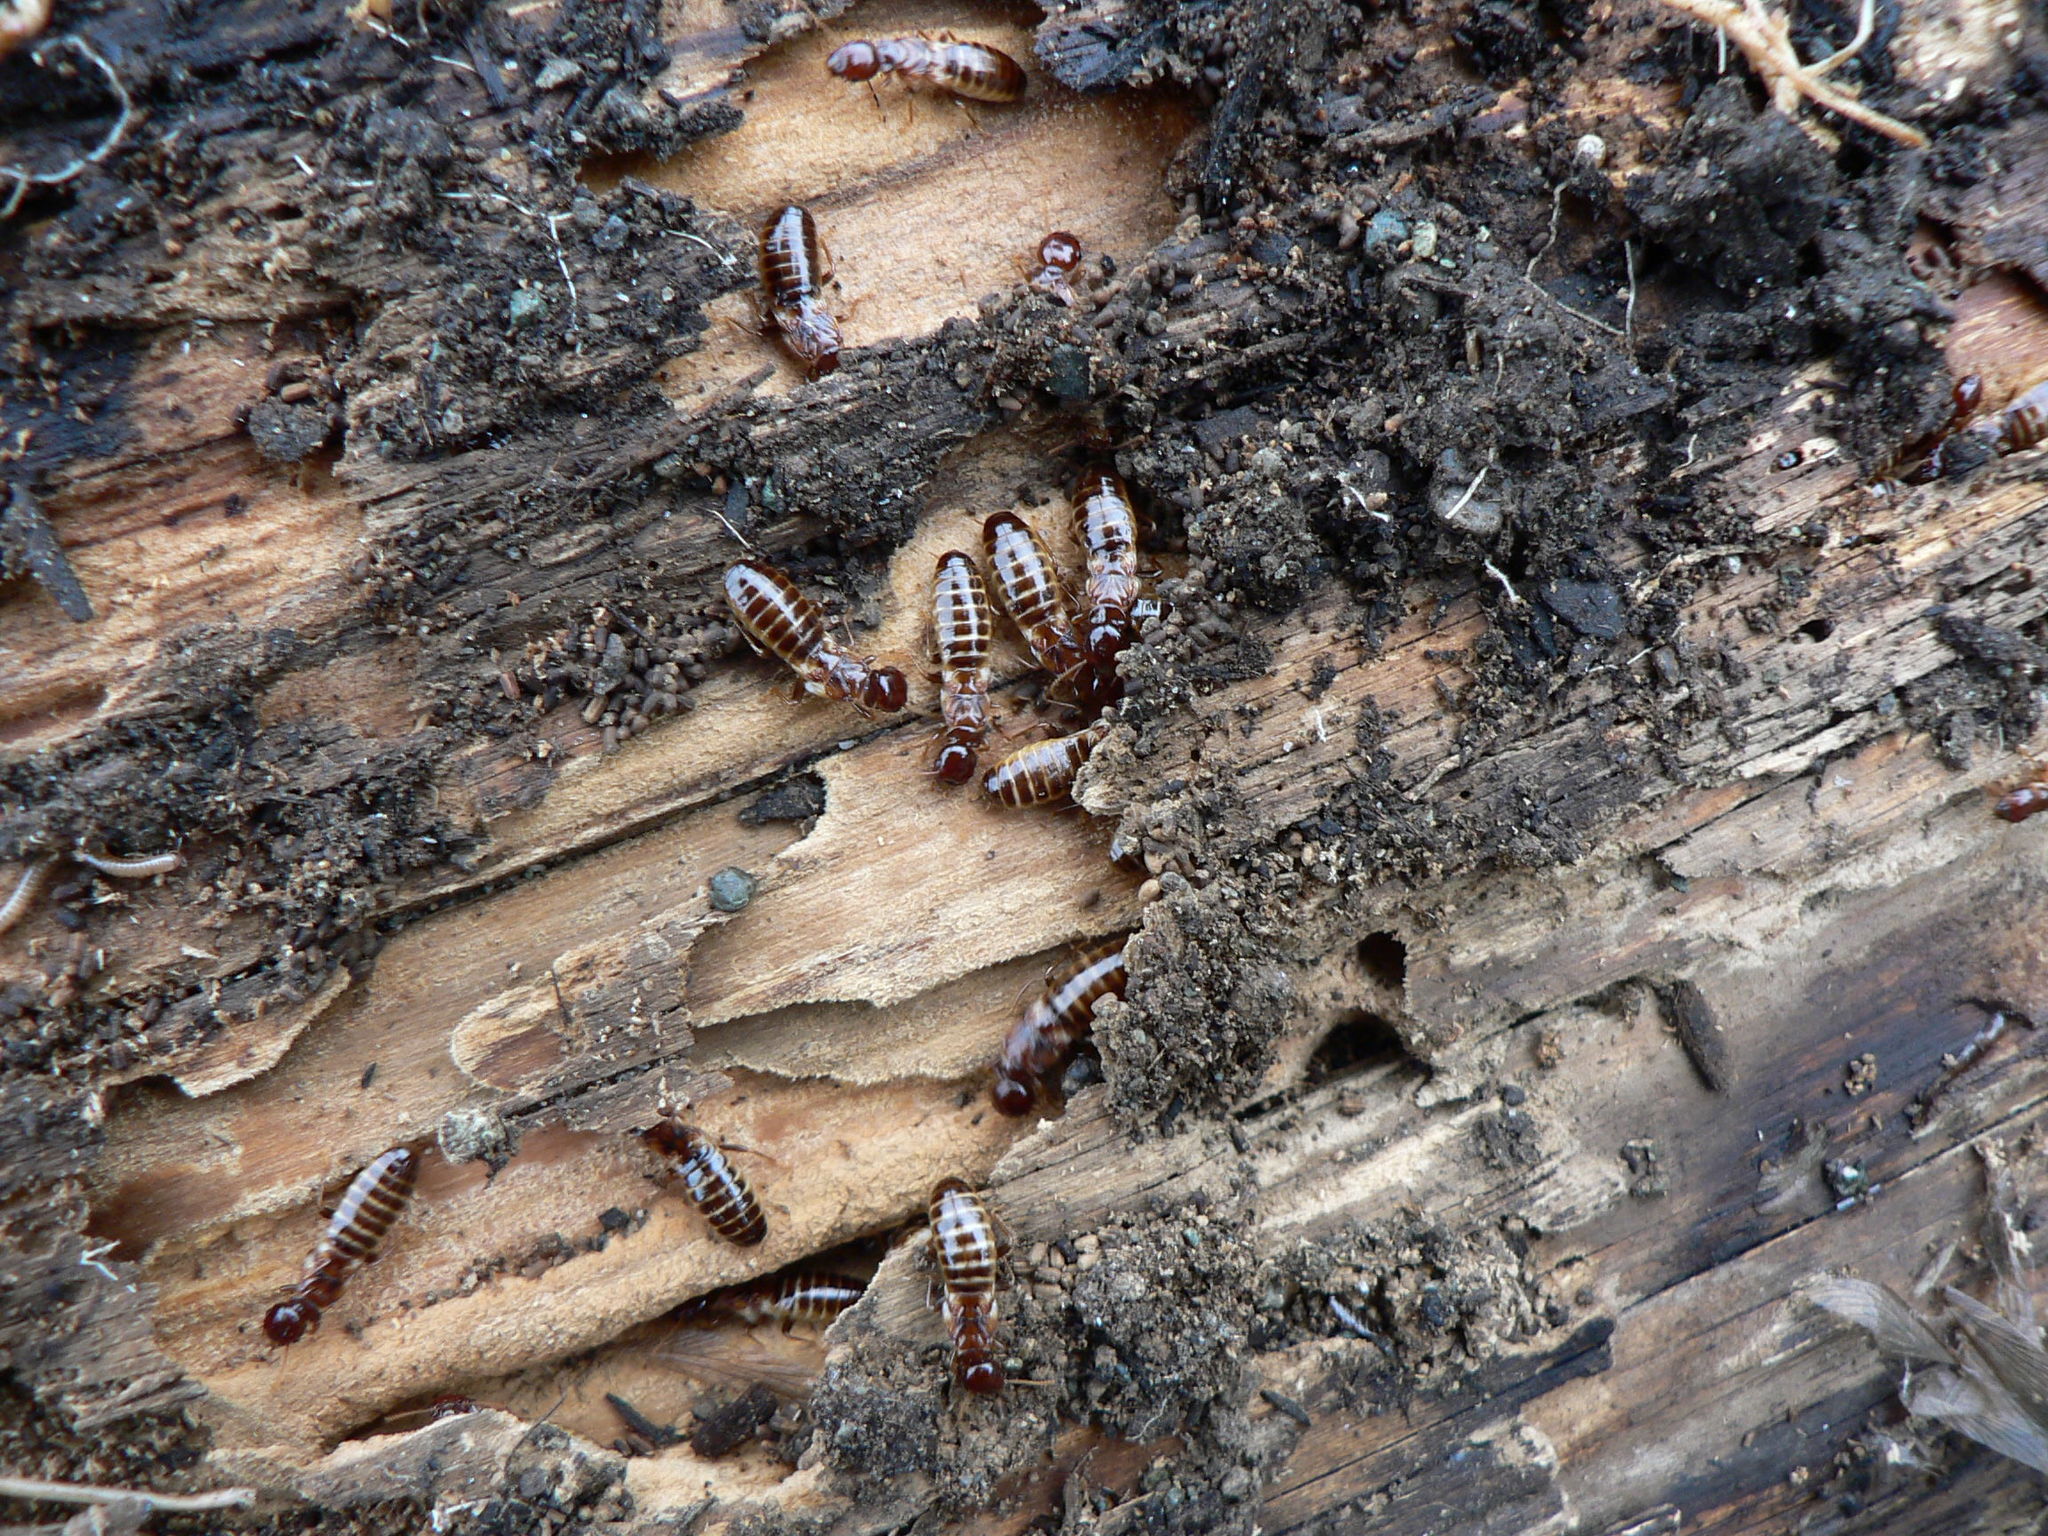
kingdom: Animalia
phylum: Arthropoda
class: Insecta
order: Blattodea
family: Archotermopsidae
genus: Zootermopsis
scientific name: Zootermopsis nevadensis
